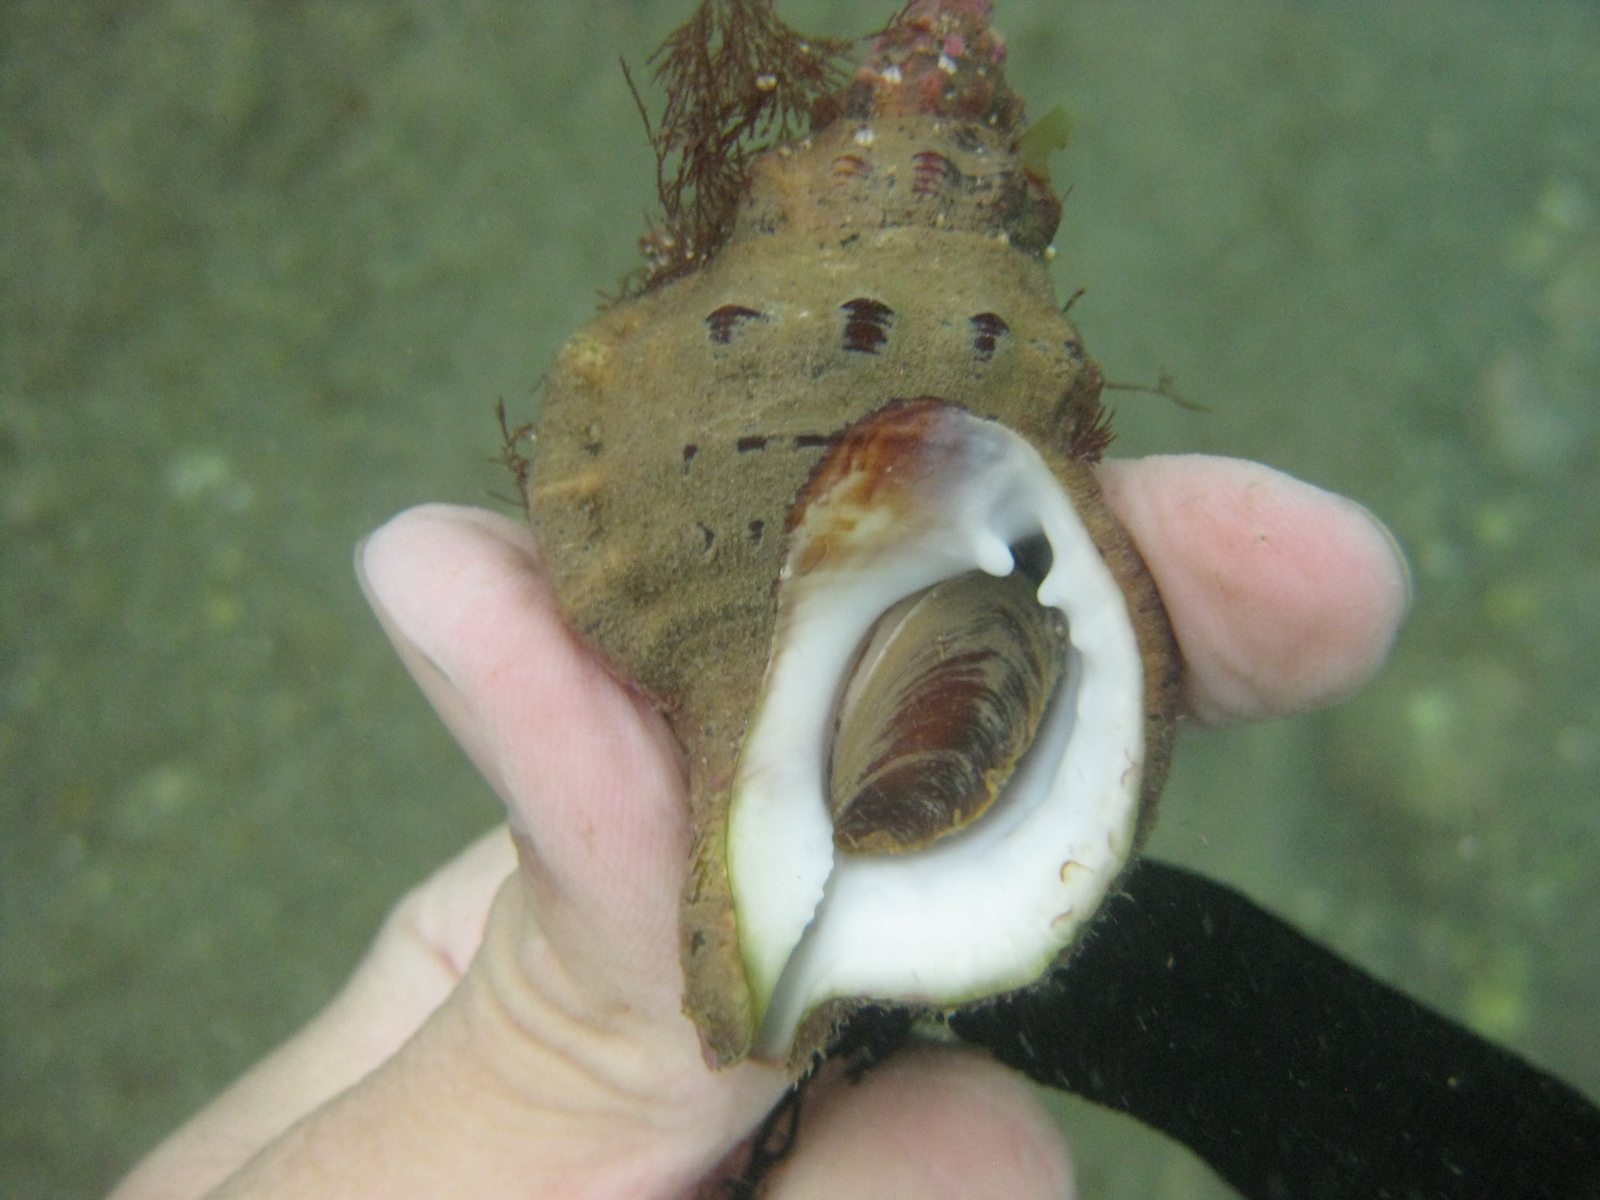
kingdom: Animalia
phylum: Mollusca
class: Gastropoda
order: Littorinimorpha
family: Ranellidae
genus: Ranella
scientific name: Ranella australasia
